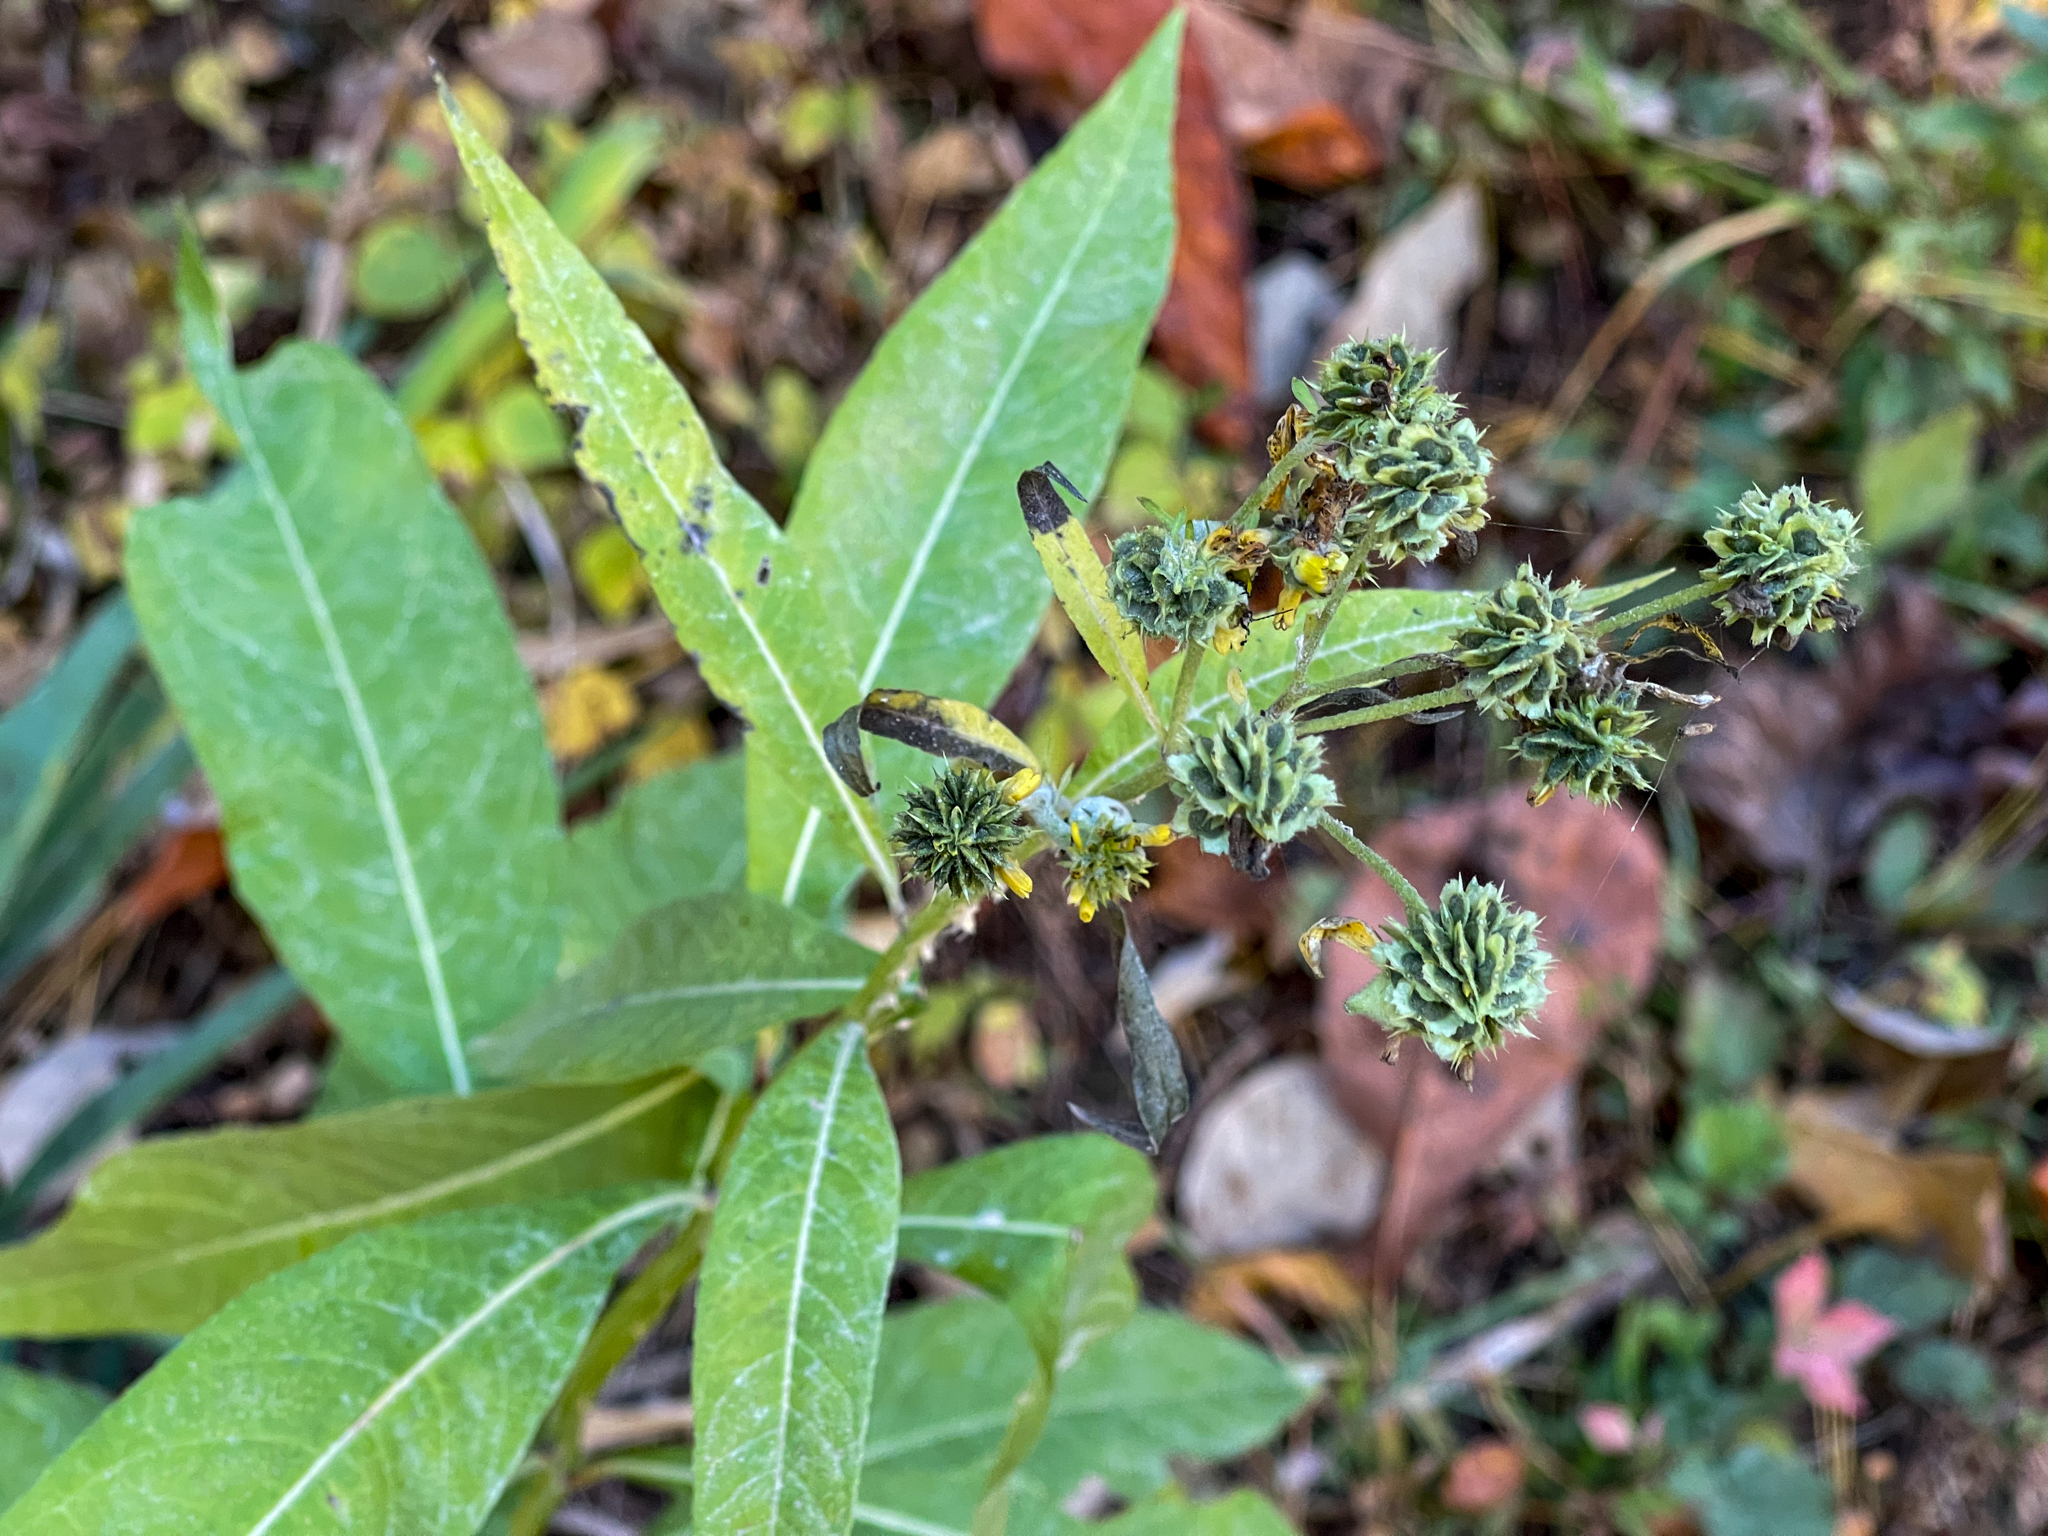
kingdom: Plantae
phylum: Tracheophyta
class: Magnoliopsida
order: Asterales
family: Asteraceae
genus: Verbesina
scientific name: Verbesina alternifolia
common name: Wingstem
